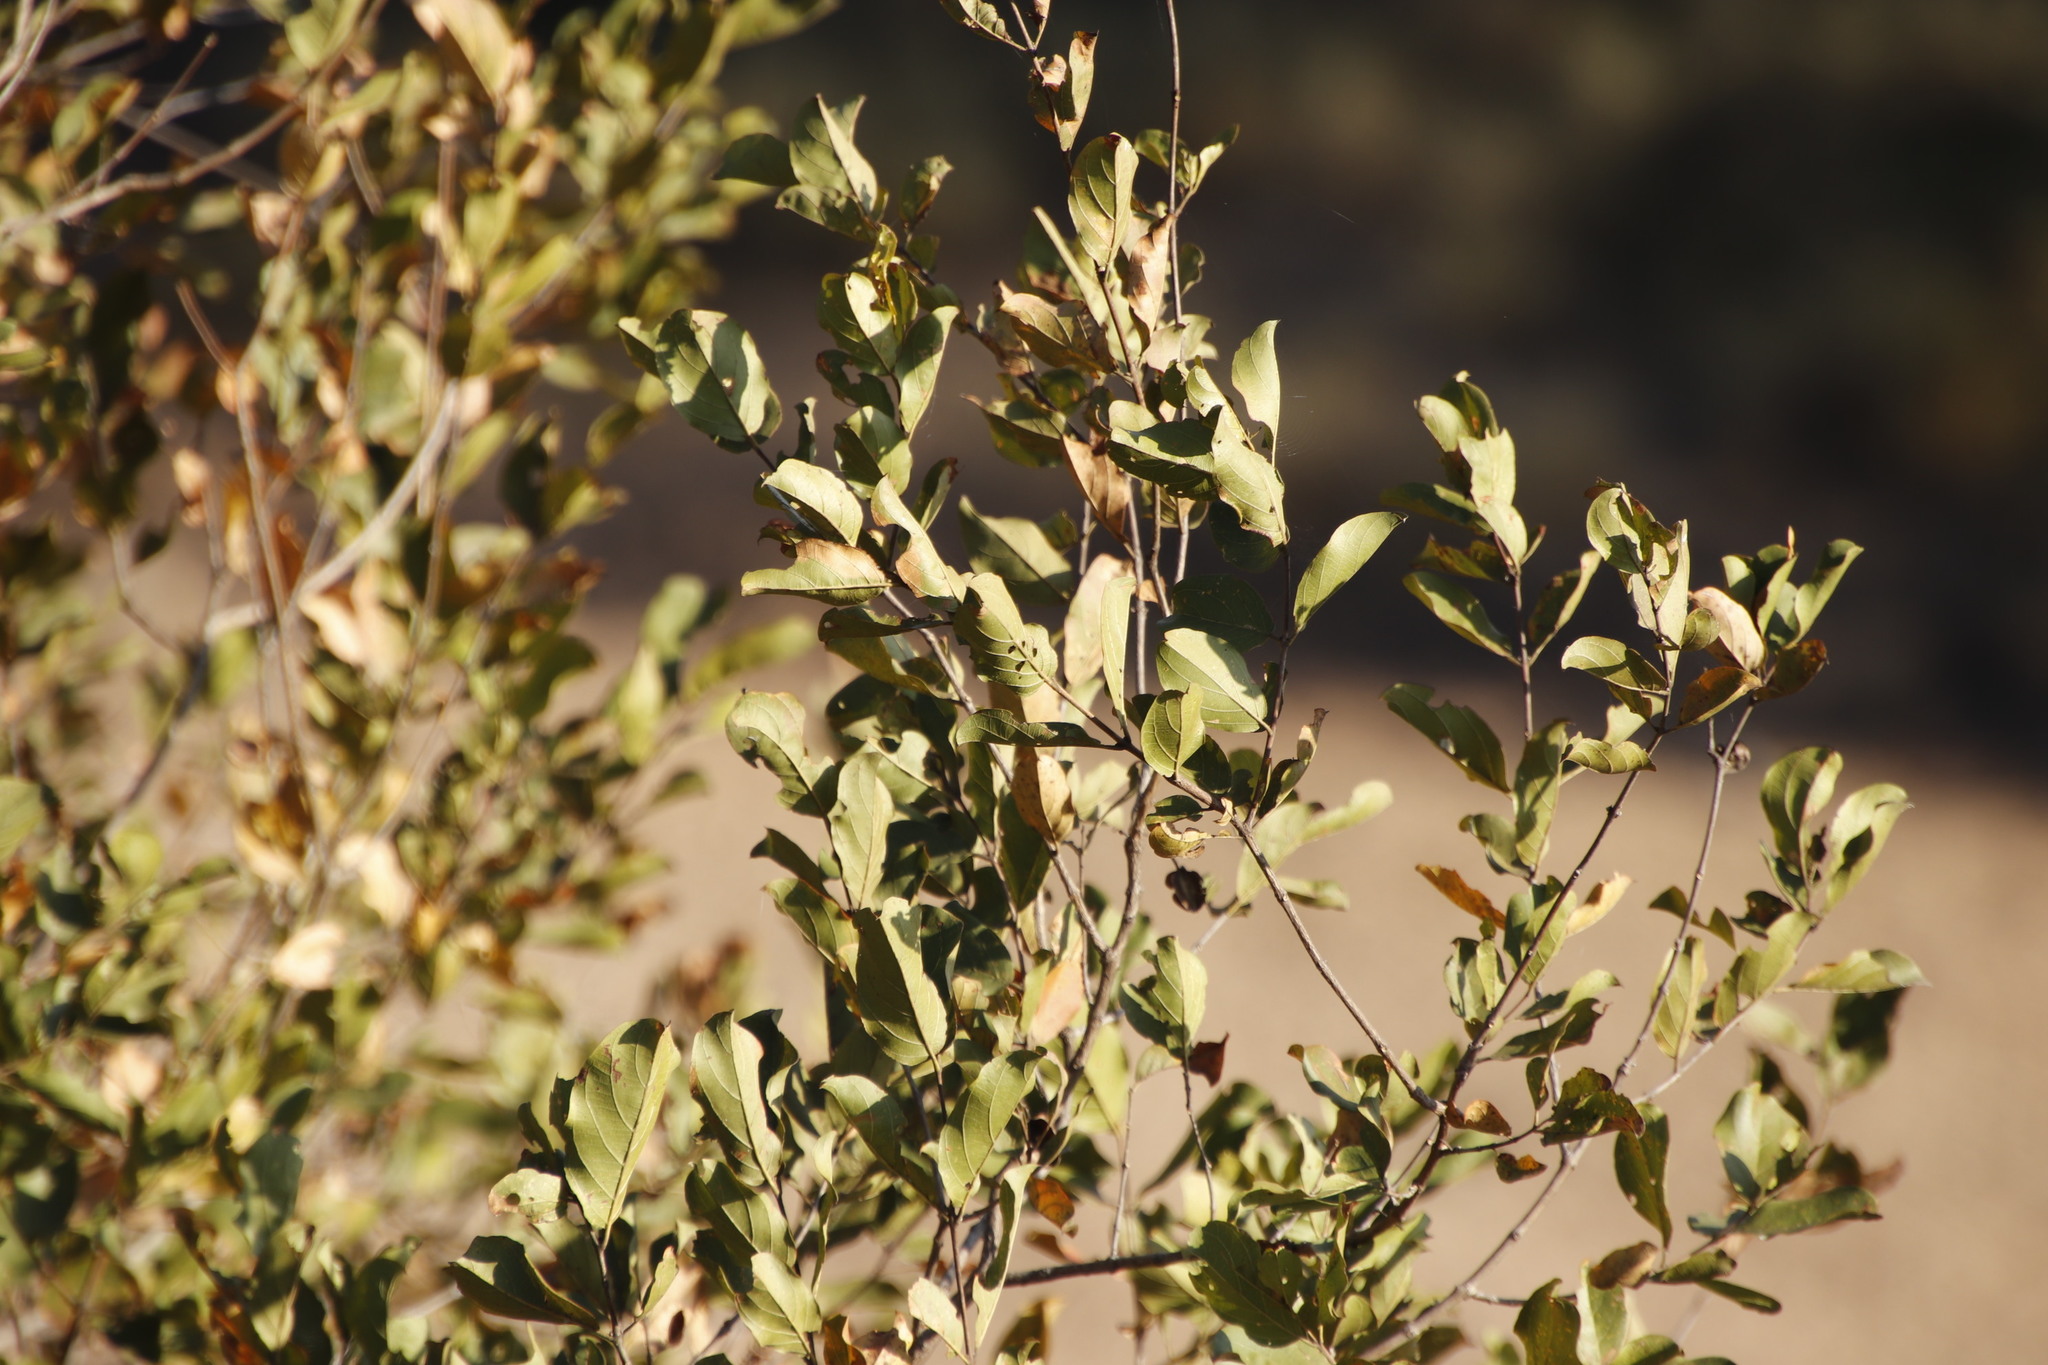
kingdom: Plantae
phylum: Tracheophyta
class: Magnoliopsida
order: Myrtales
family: Combretaceae
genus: Combretum
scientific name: Combretum apiculatum
